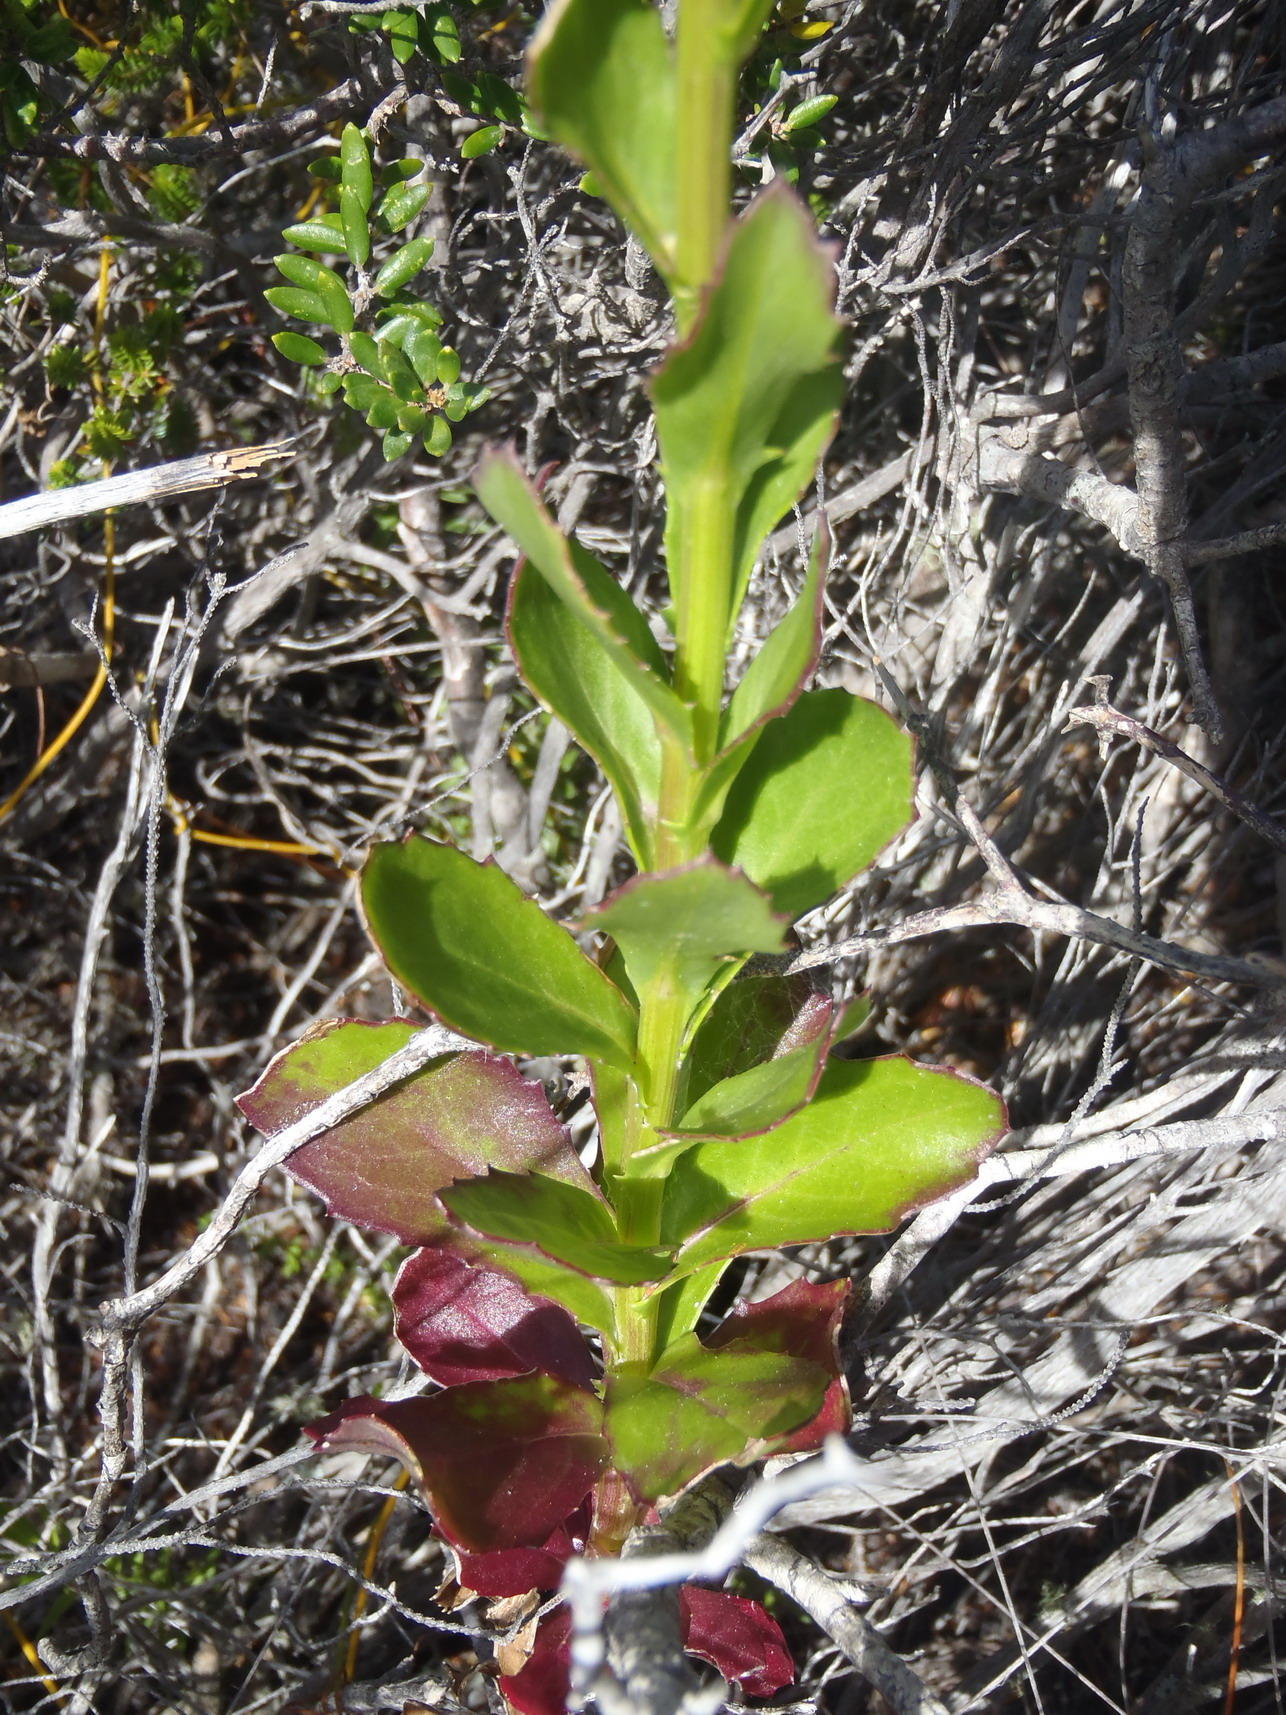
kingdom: Plantae
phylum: Tracheophyta
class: Magnoliopsida
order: Asterales
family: Asteraceae
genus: Senecio
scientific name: Senecio glastifolius
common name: Woad-leaved ragwort
